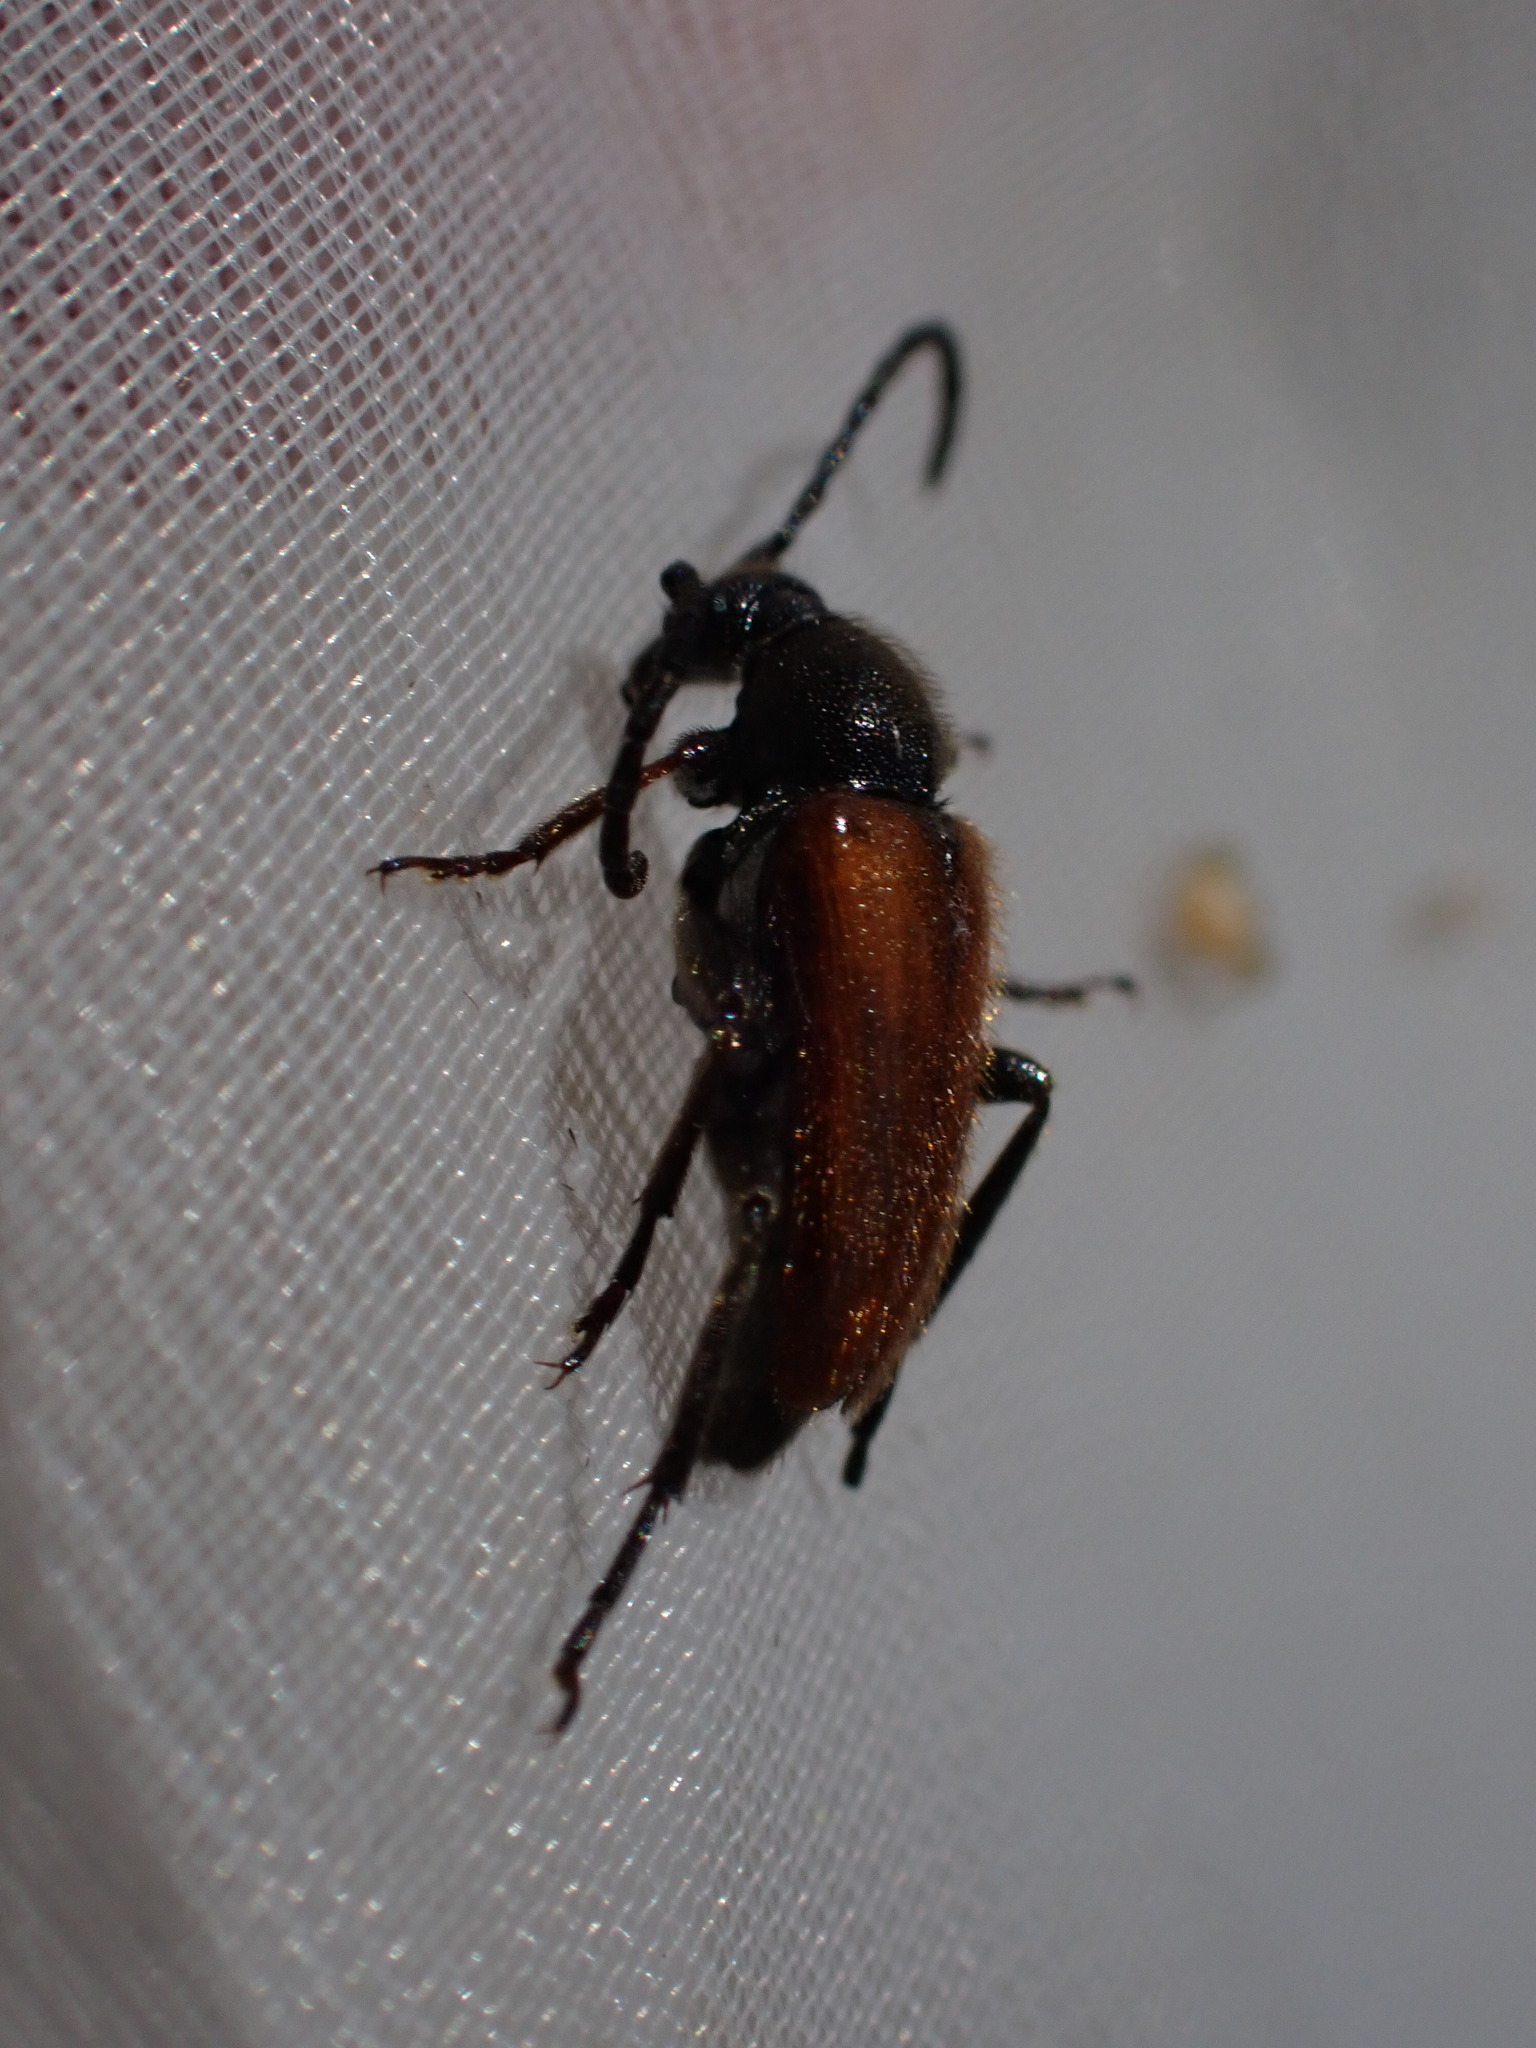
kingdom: Animalia
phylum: Arthropoda
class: Insecta
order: Coleoptera
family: Cerambycidae
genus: Pseudovadonia
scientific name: Pseudovadonia livida
